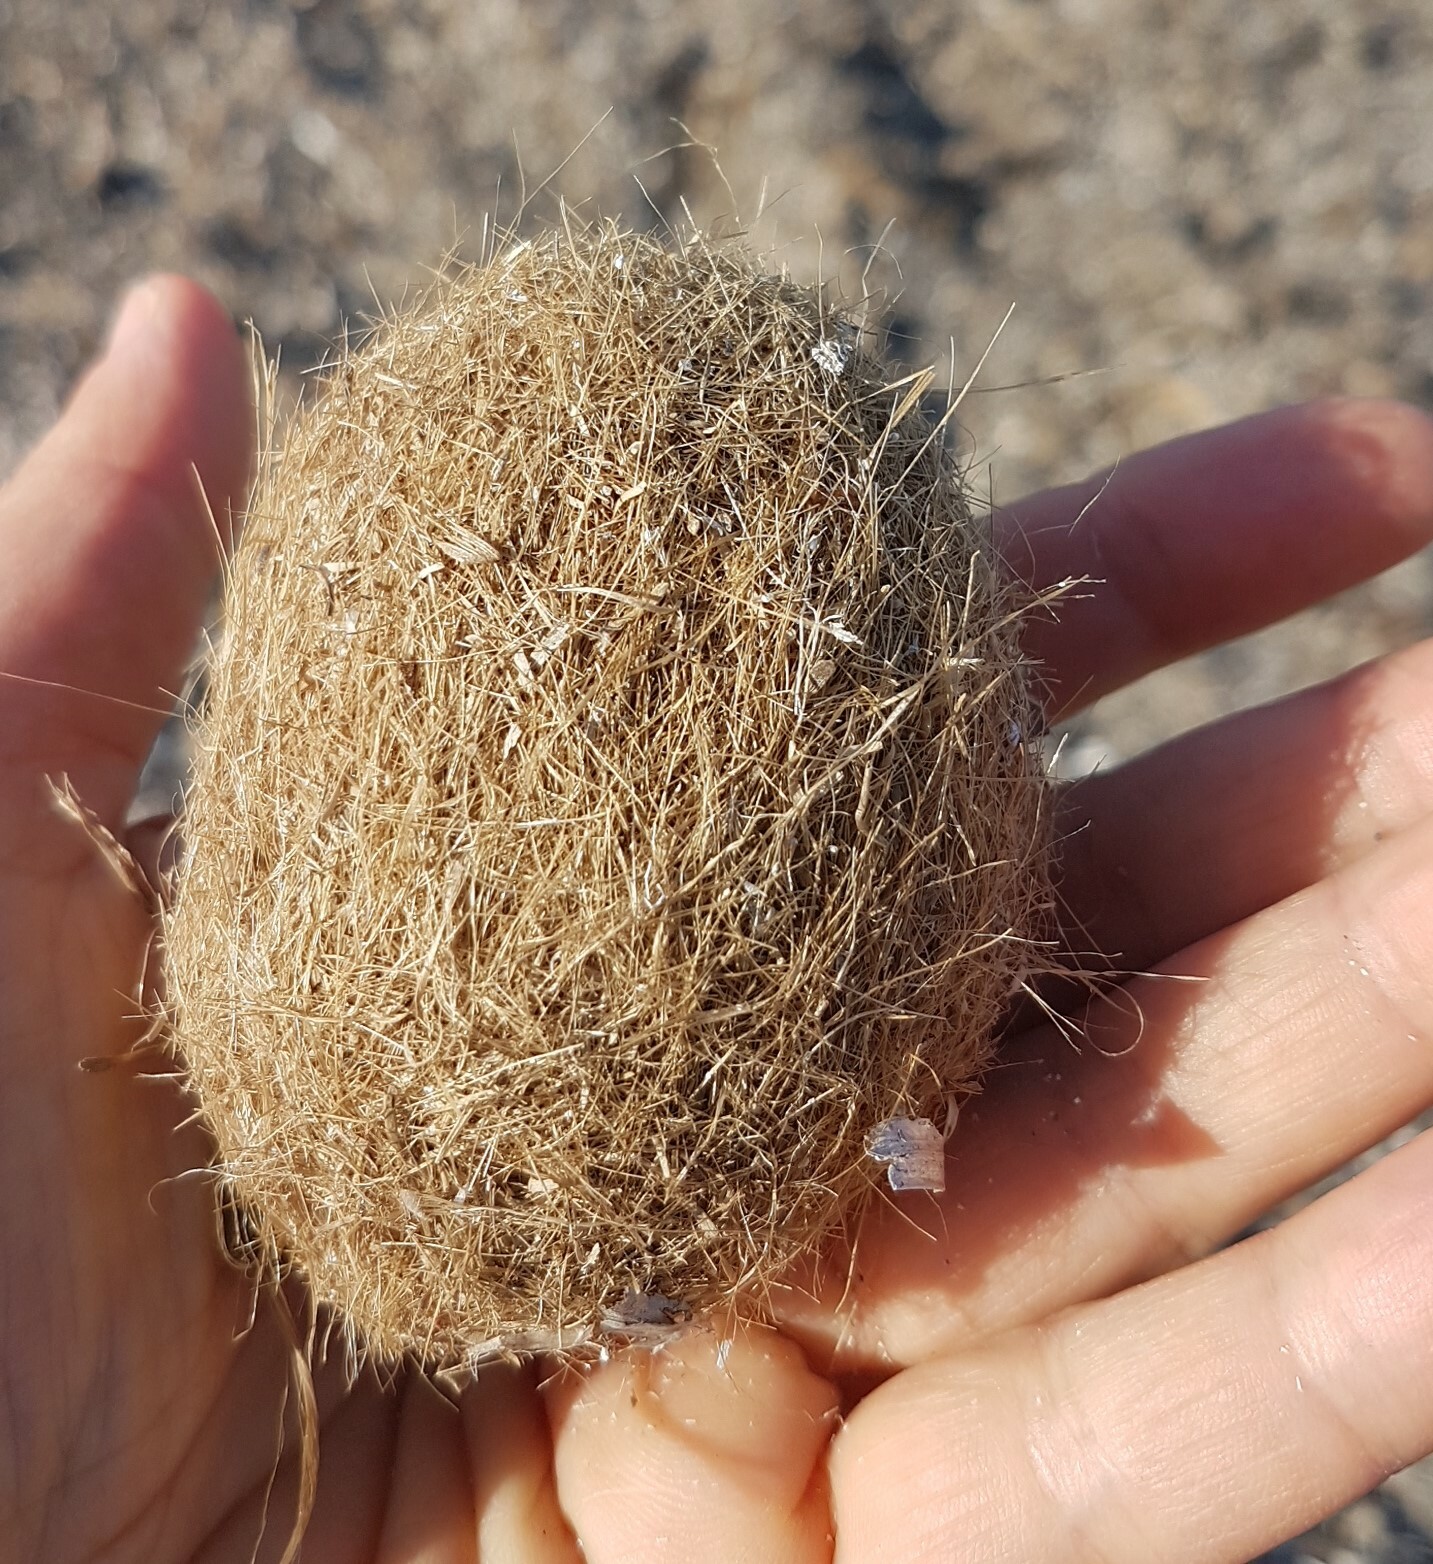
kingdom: Plantae
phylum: Tracheophyta
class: Liliopsida
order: Alismatales
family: Posidoniaceae
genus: Posidonia
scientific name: Posidonia oceanica
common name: Mediterranean tapeweed
